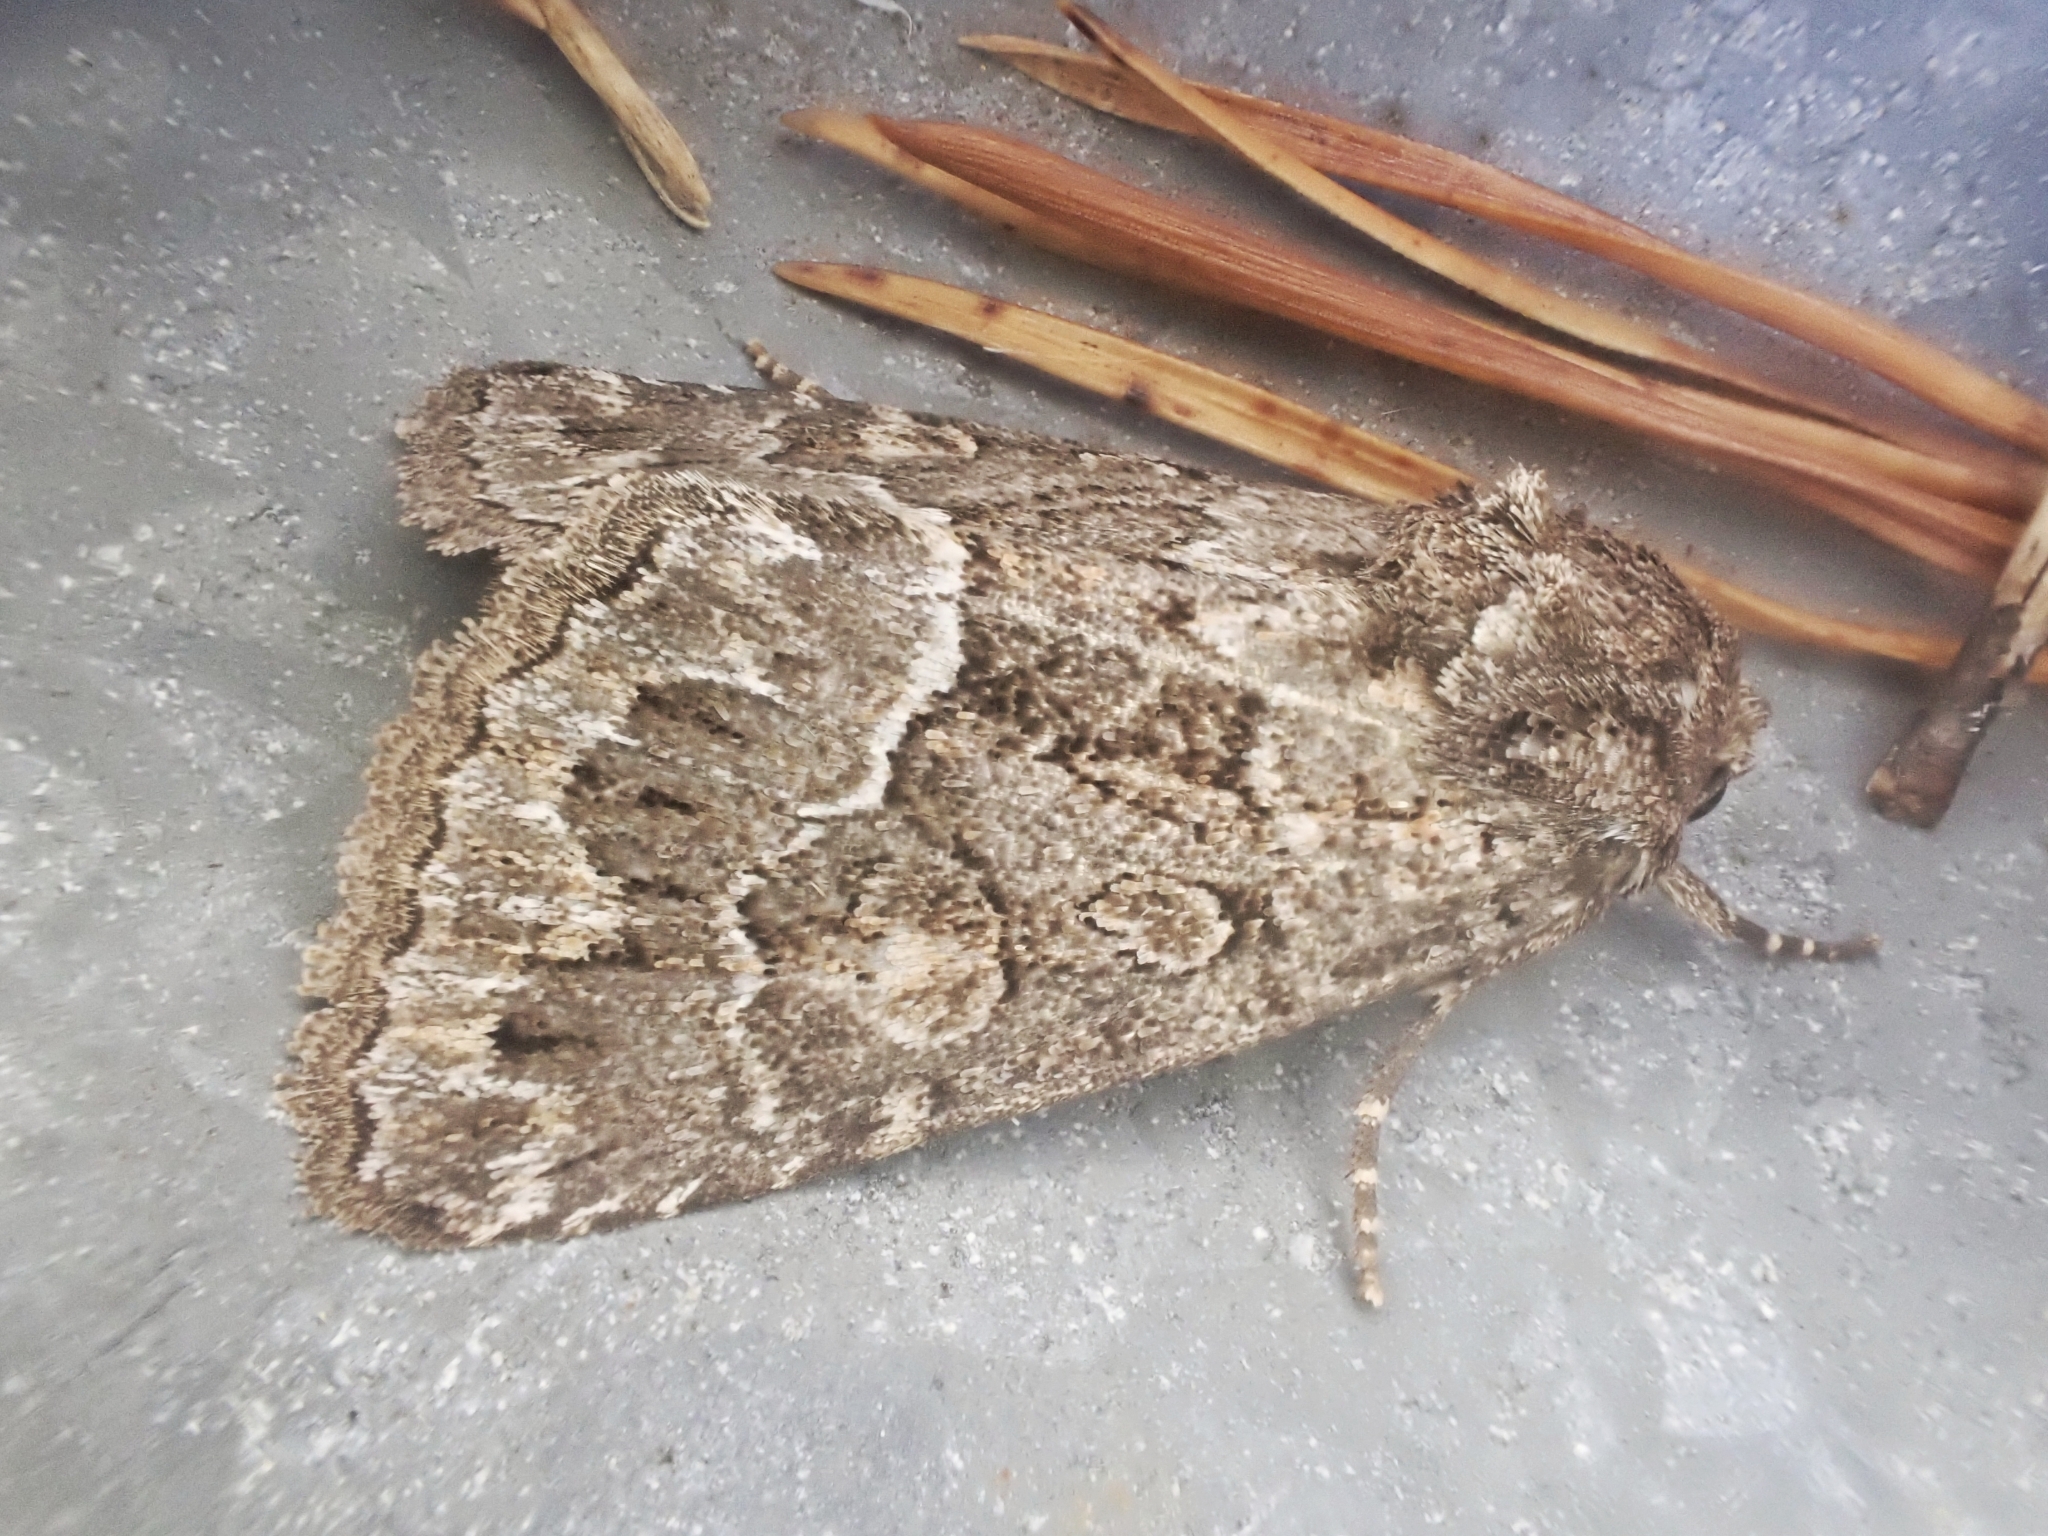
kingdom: Animalia
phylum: Arthropoda
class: Insecta
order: Lepidoptera
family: Noctuidae
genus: Thalpophila
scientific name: Thalpophila matura
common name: Straw underwing
